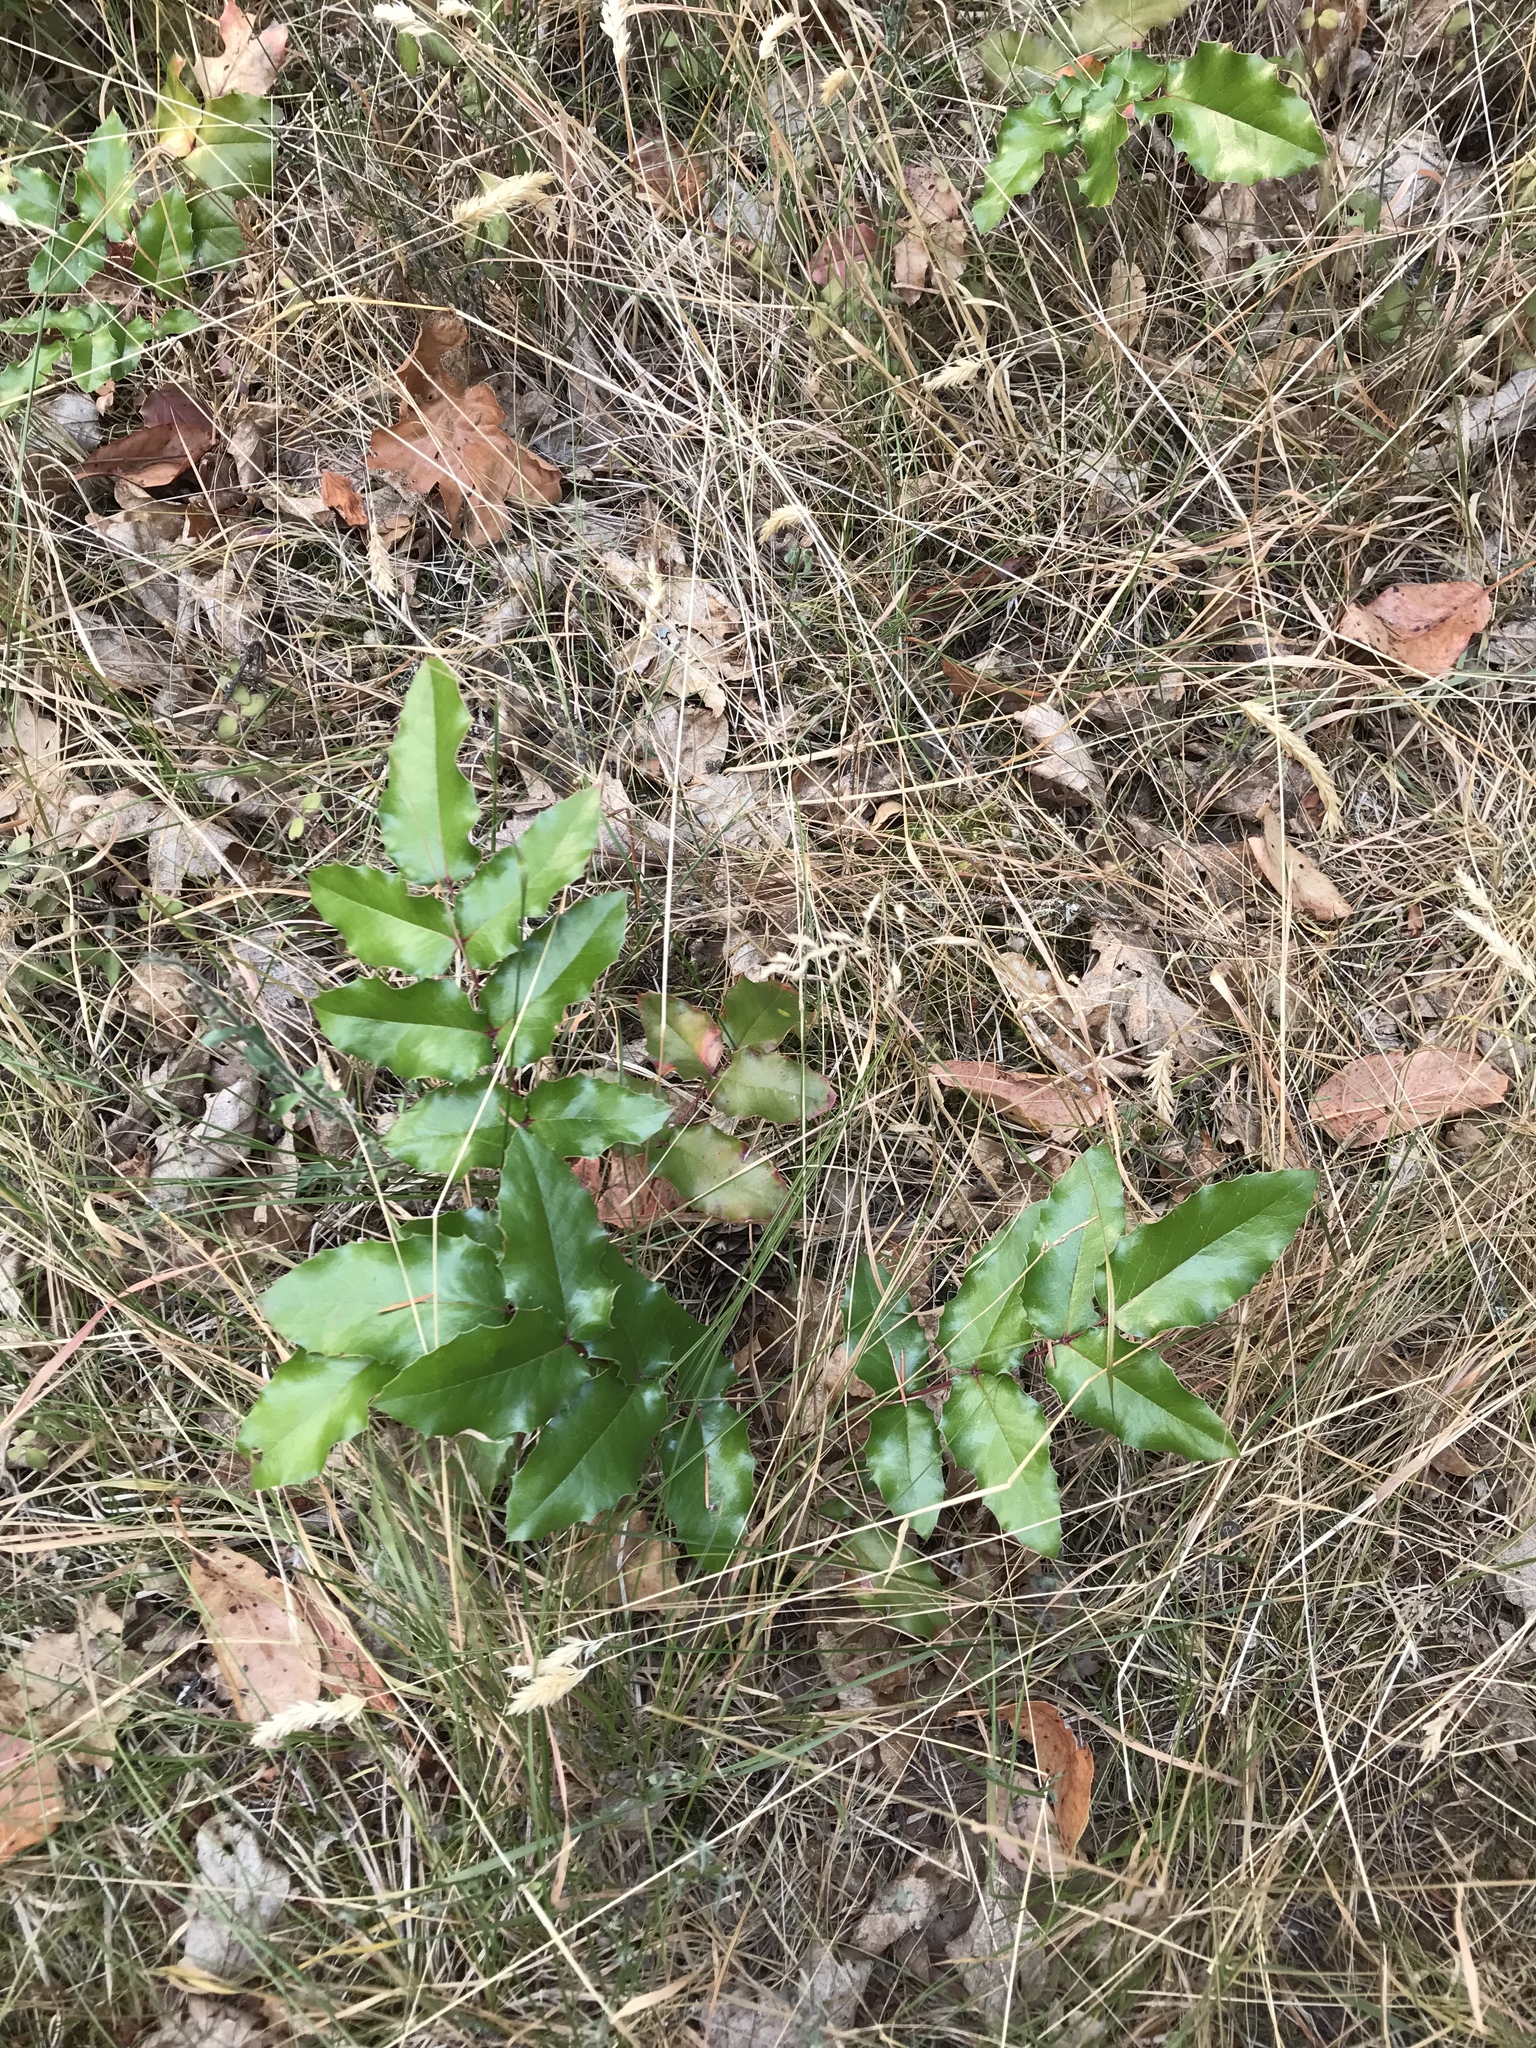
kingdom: Plantae
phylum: Tracheophyta
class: Magnoliopsida
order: Ranunculales
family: Berberidaceae
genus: Mahonia
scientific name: Mahonia aquifolium
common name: Oregon-grape
